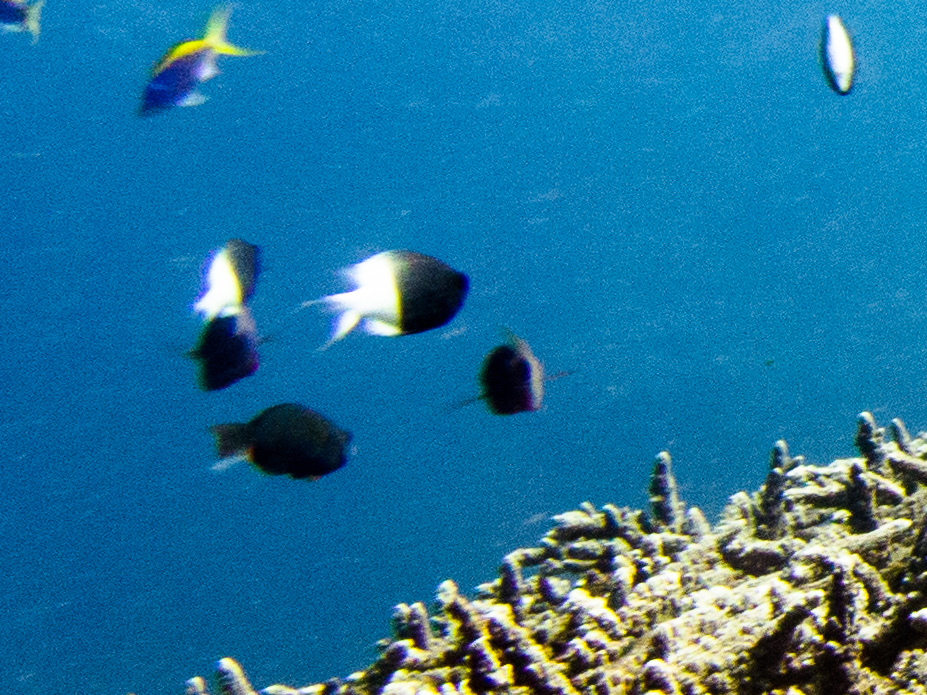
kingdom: Animalia
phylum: Chordata
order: Perciformes
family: Pomacentridae
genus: Chromis
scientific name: Chromis fieldi
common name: Chocolatedip chromis
